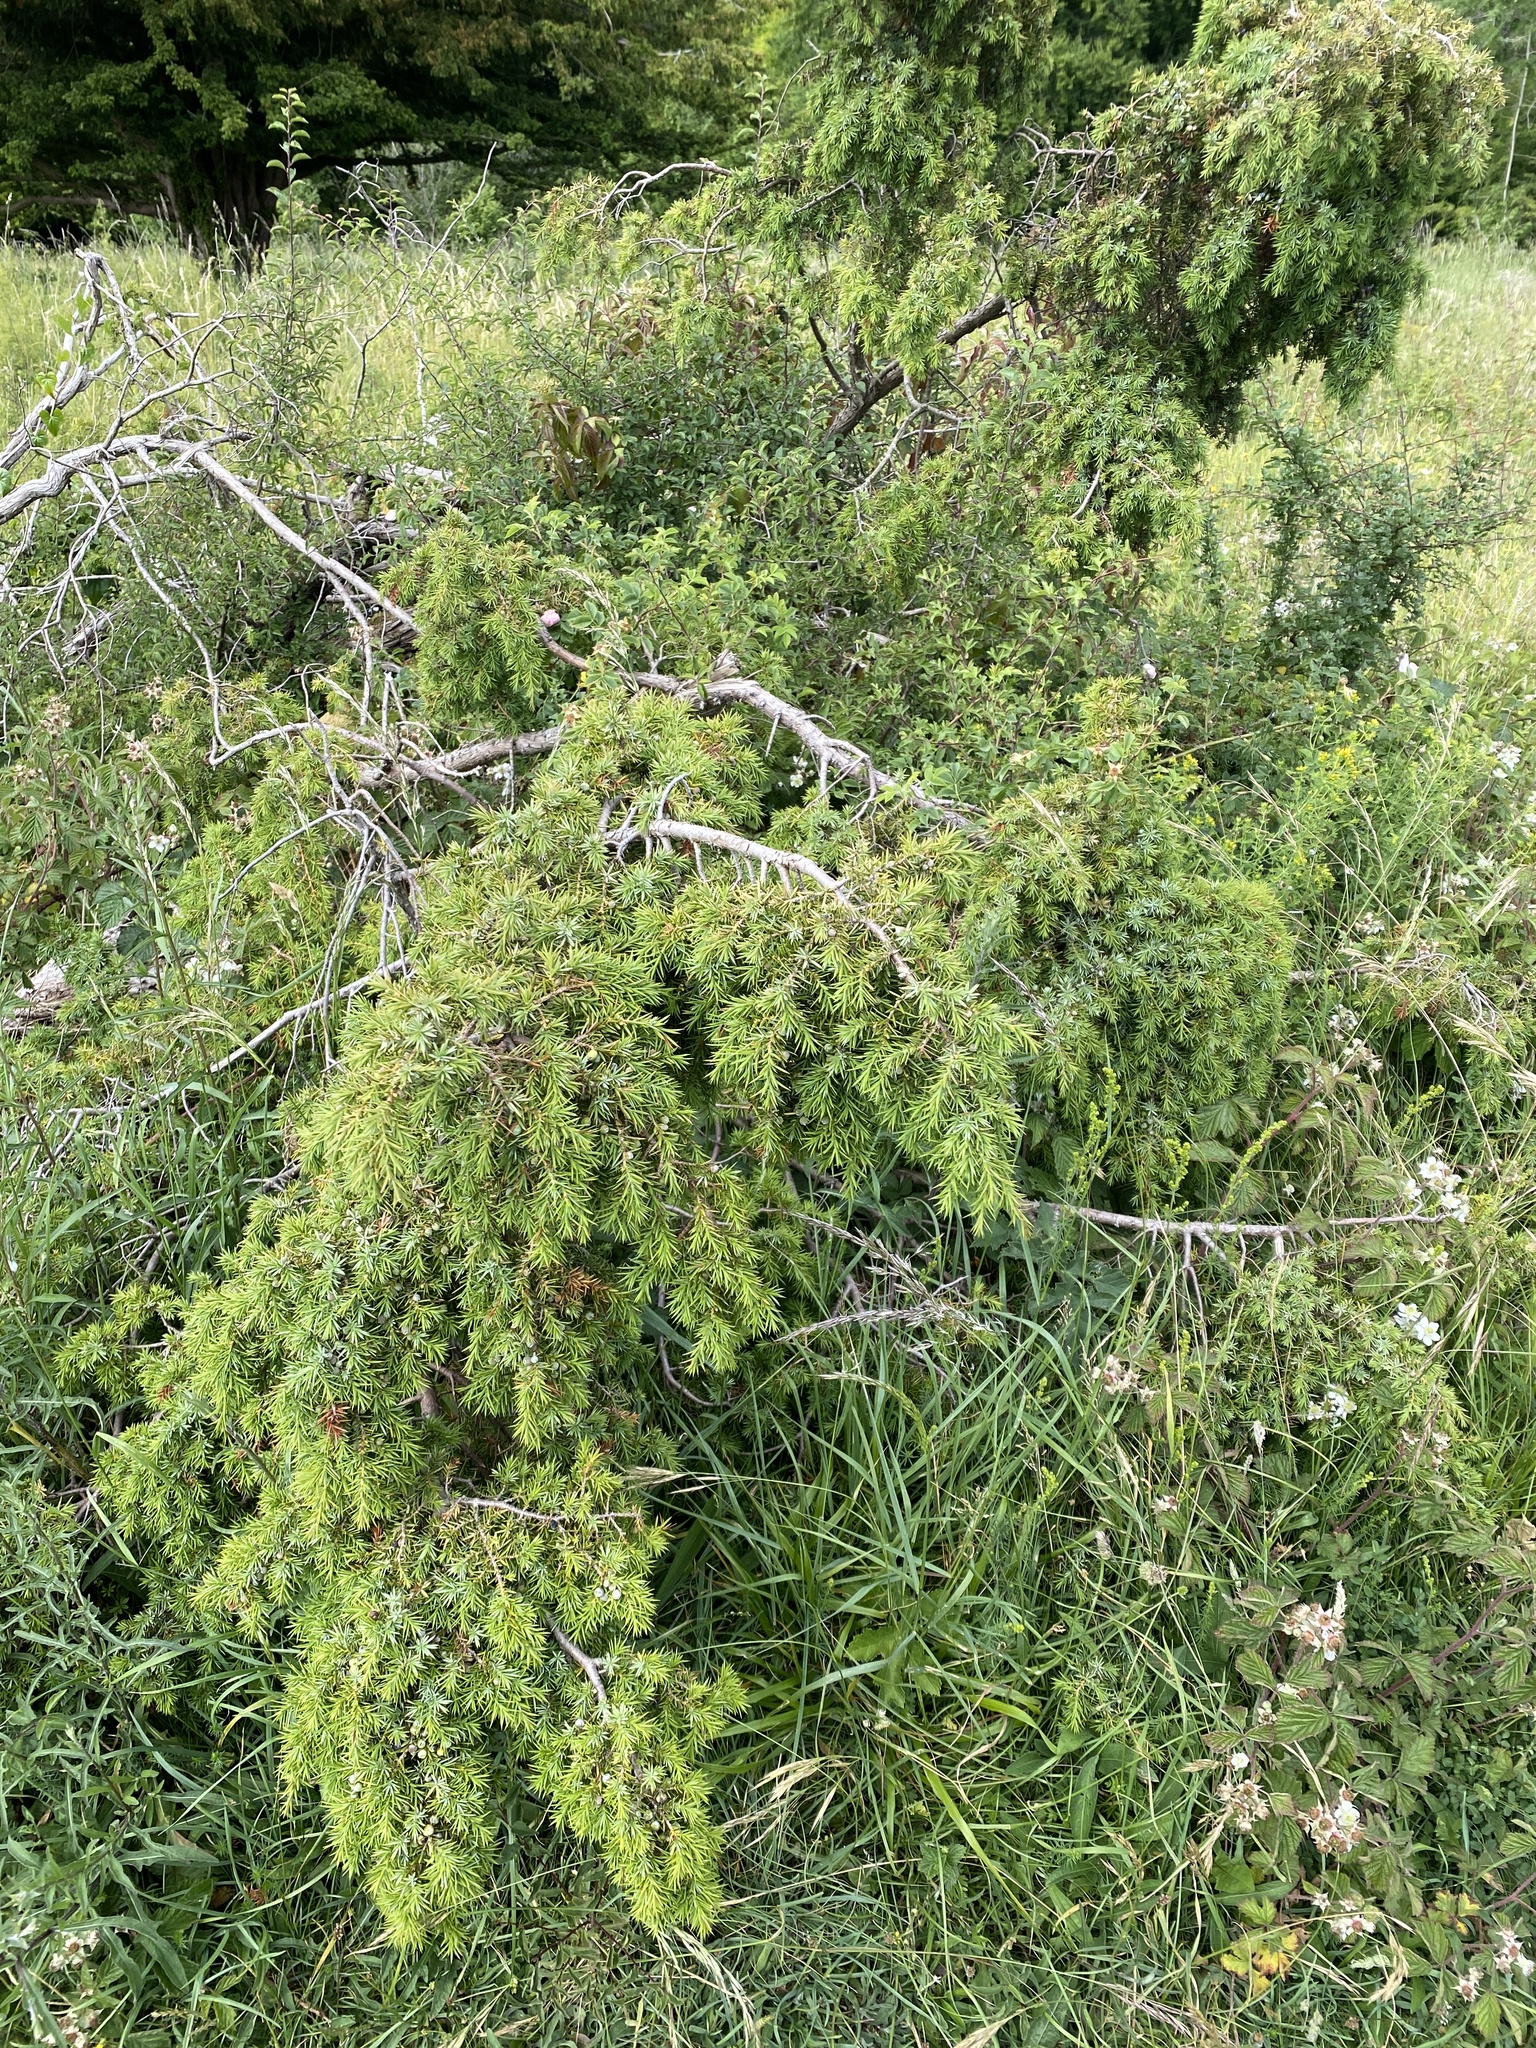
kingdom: Plantae
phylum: Tracheophyta
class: Pinopsida
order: Pinales
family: Cupressaceae
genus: Juniperus
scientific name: Juniperus communis
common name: Common juniper
